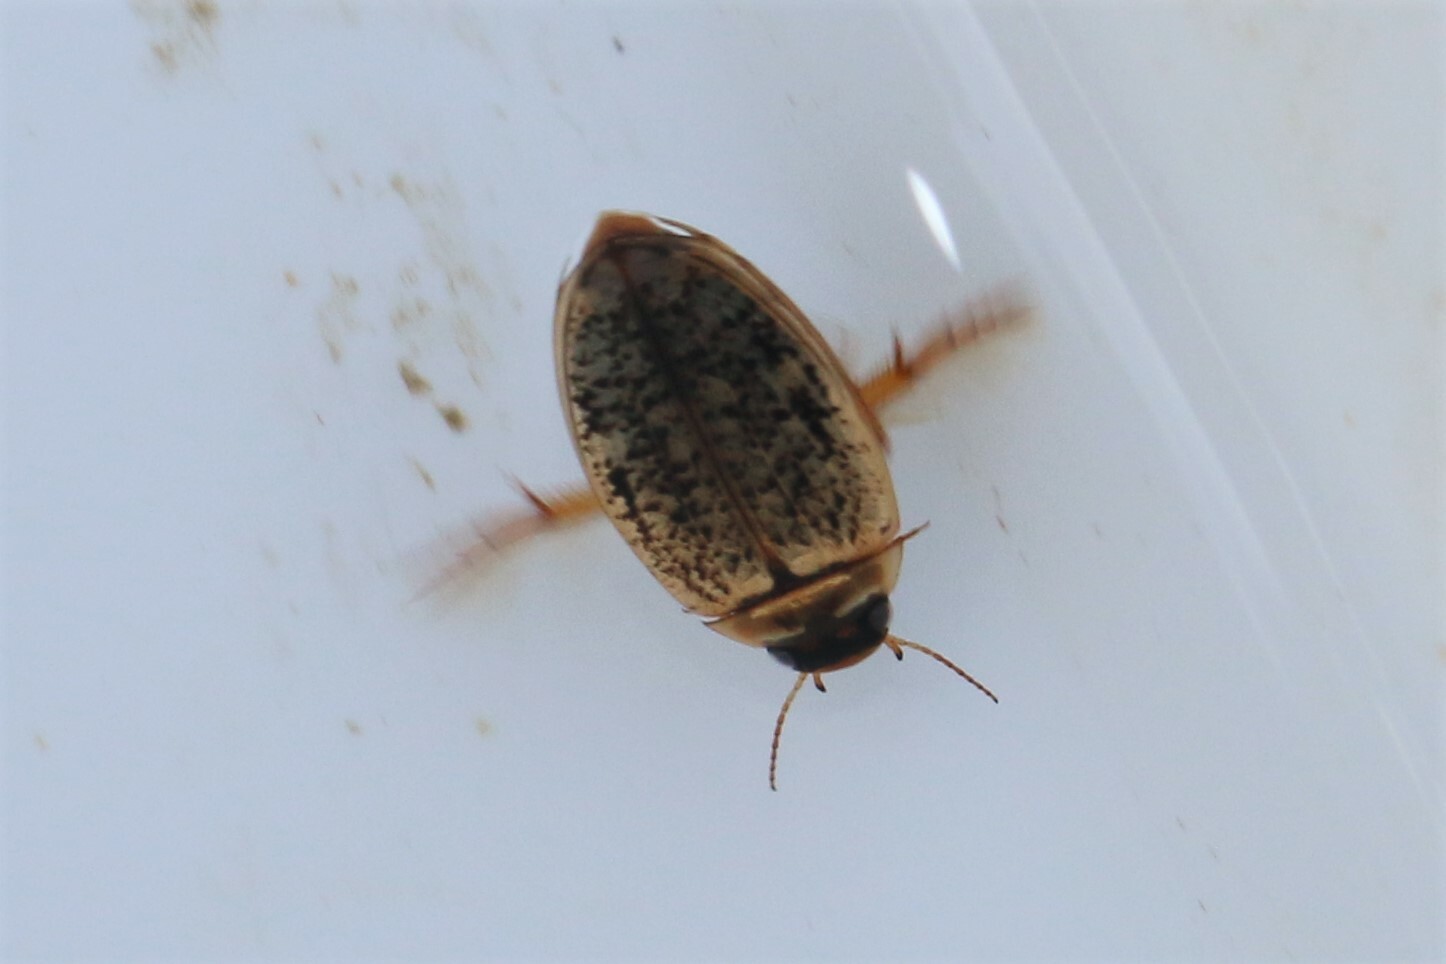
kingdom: Animalia
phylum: Arthropoda
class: Insecta
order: Coleoptera
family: Dytiscidae
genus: Agabus
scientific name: Agabus nebulosus
